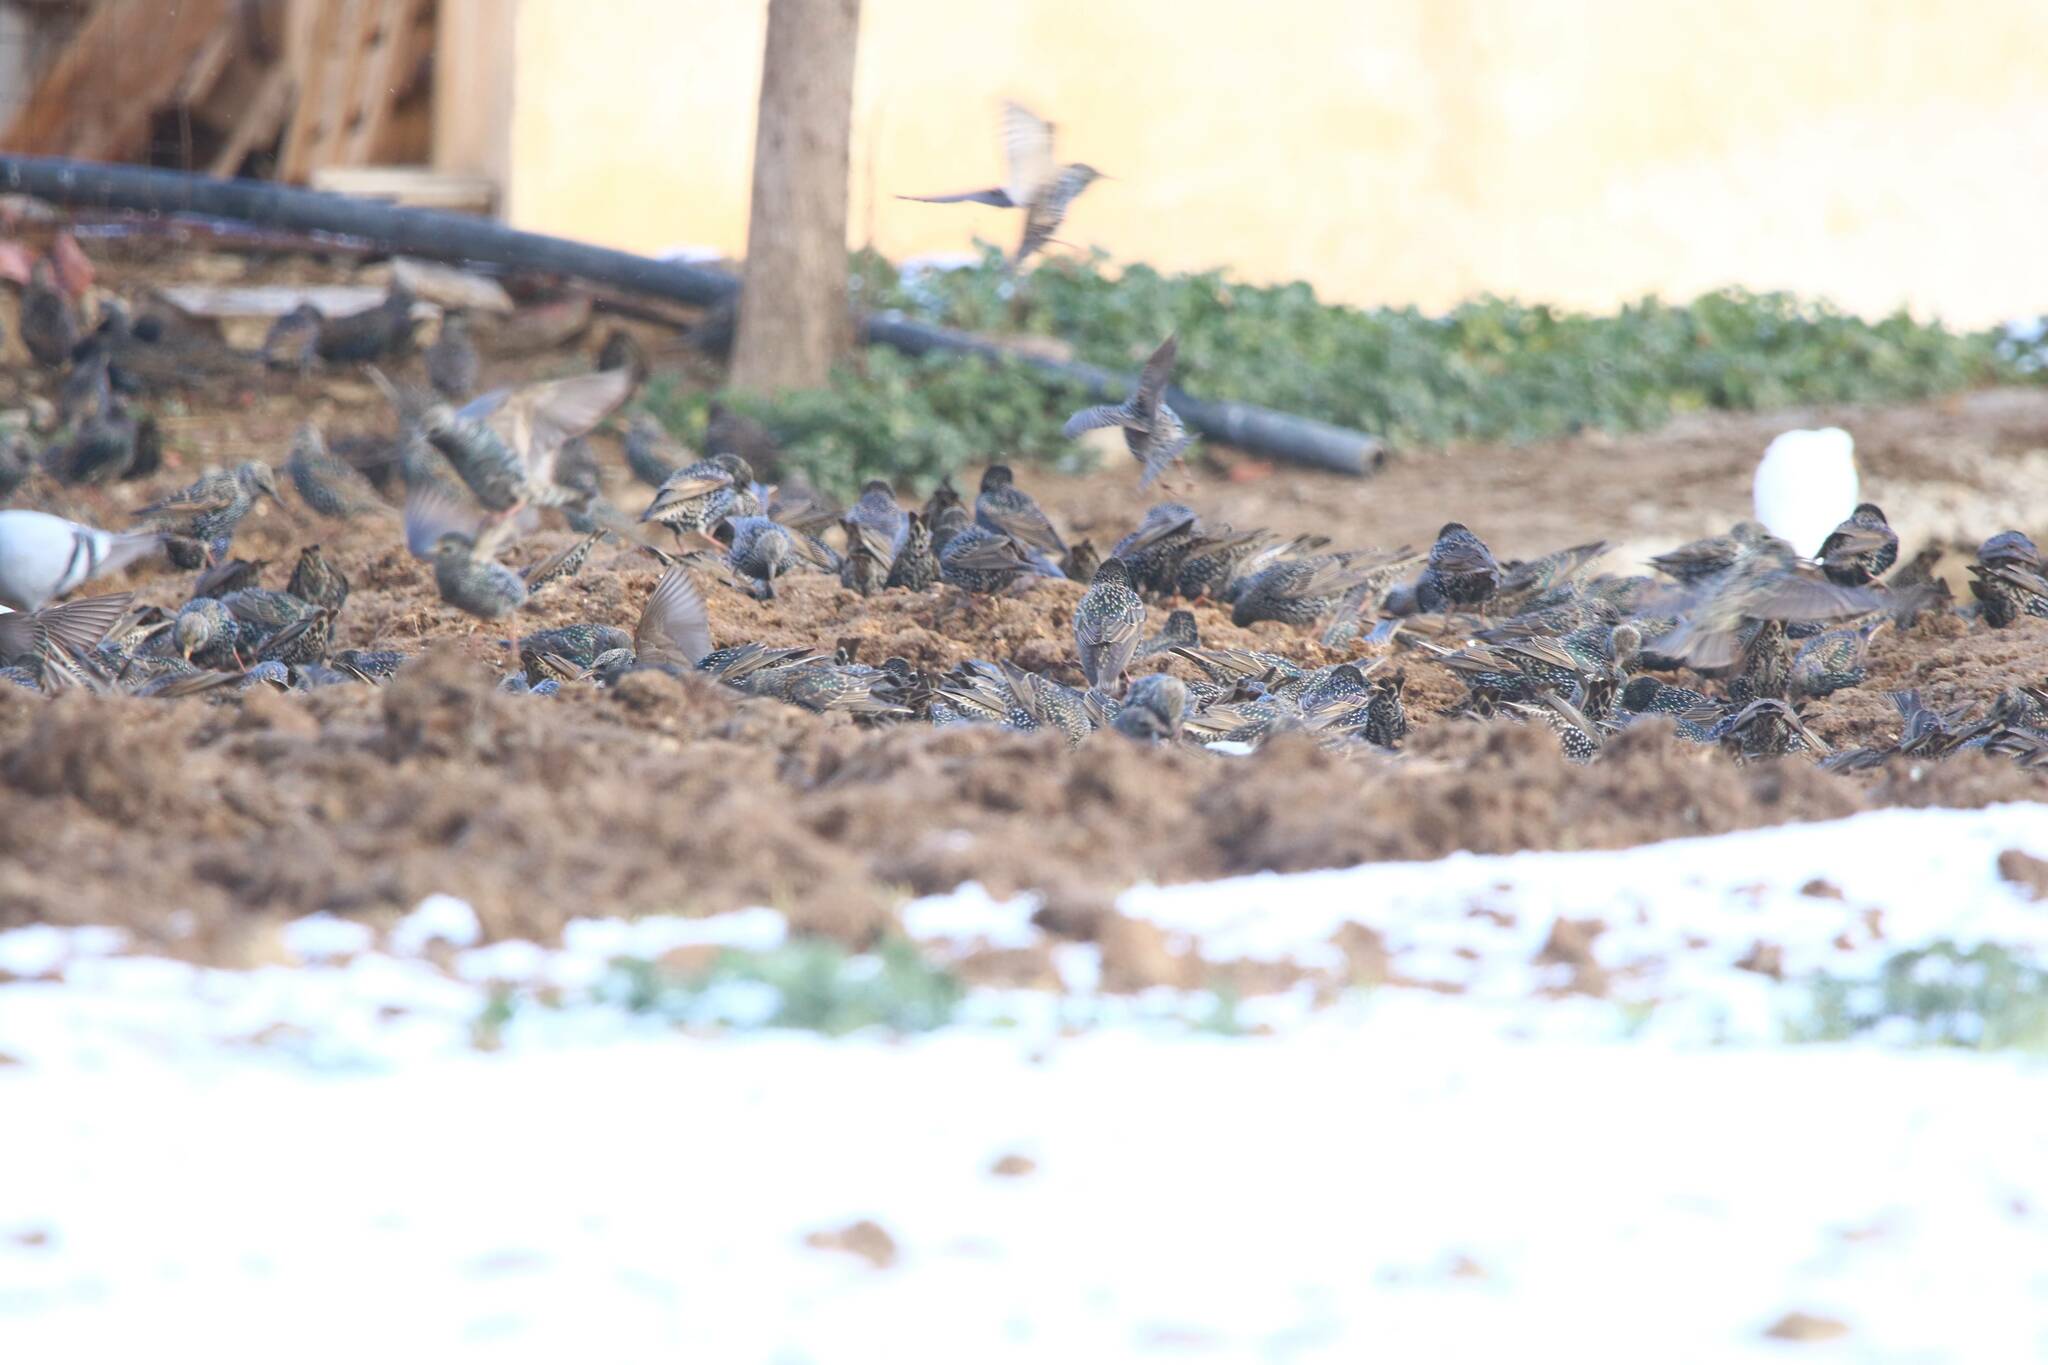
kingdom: Animalia
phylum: Chordata
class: Aves
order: Passeriformes
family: Sturnidae
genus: Sturnus
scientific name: Sturnus vulgaris
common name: Common starling
